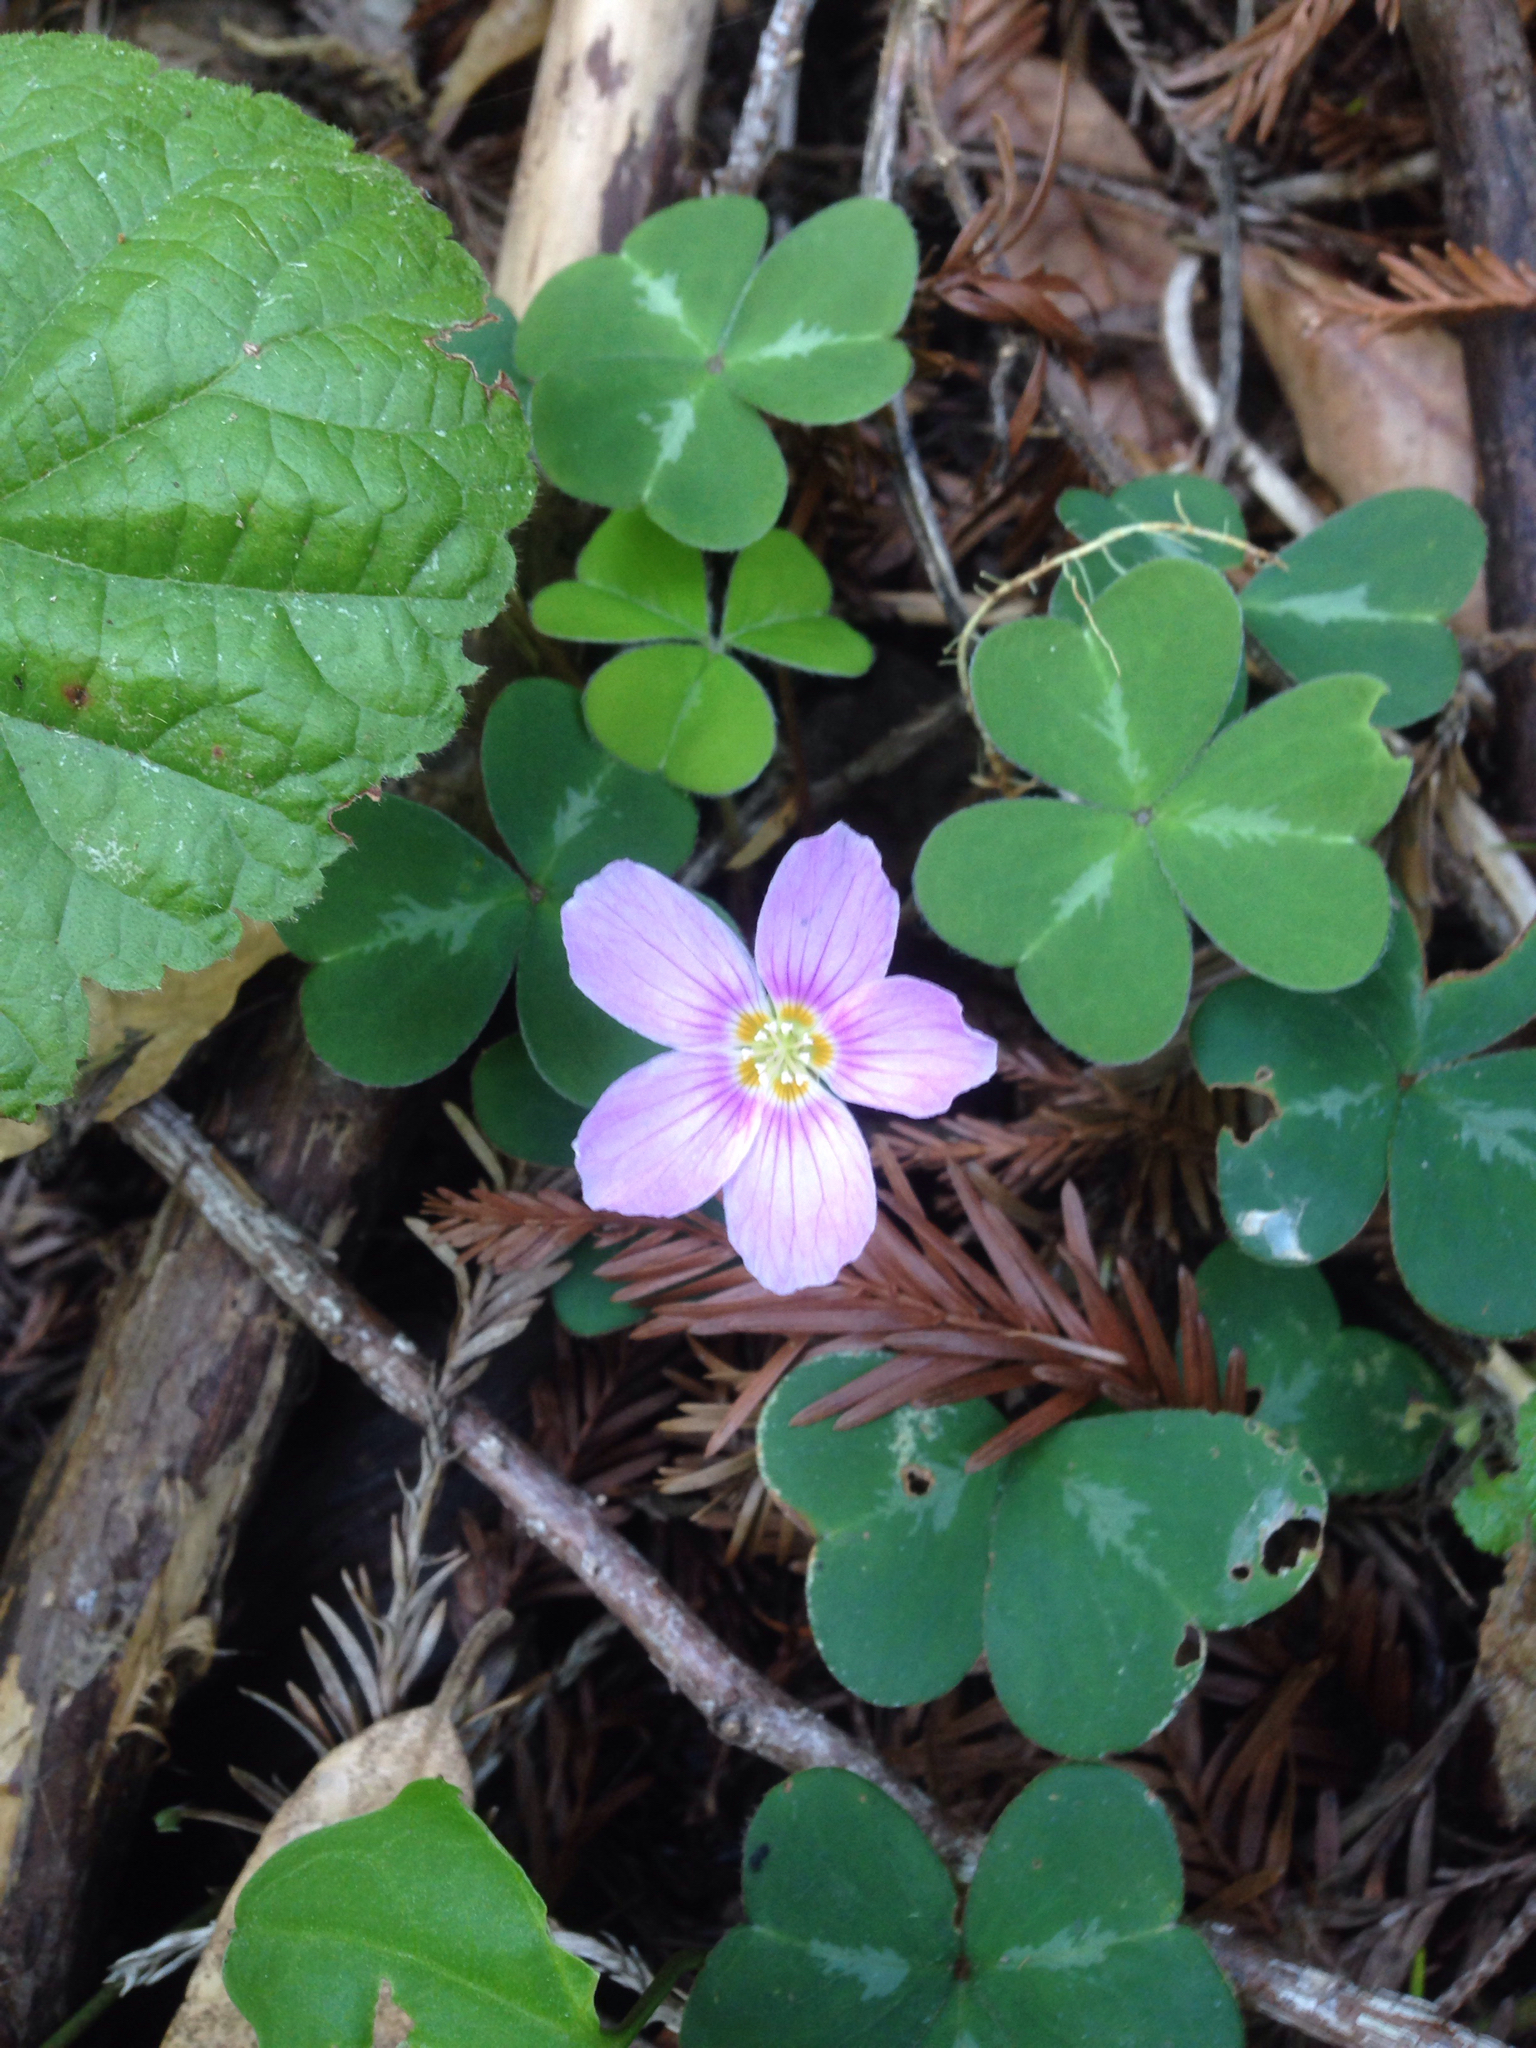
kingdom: Plantae
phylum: Tracheophyta
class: Magnoliopsida
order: Oxalidales
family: Oxalidaceae
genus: Oxalis
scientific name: Oxalis oregana
